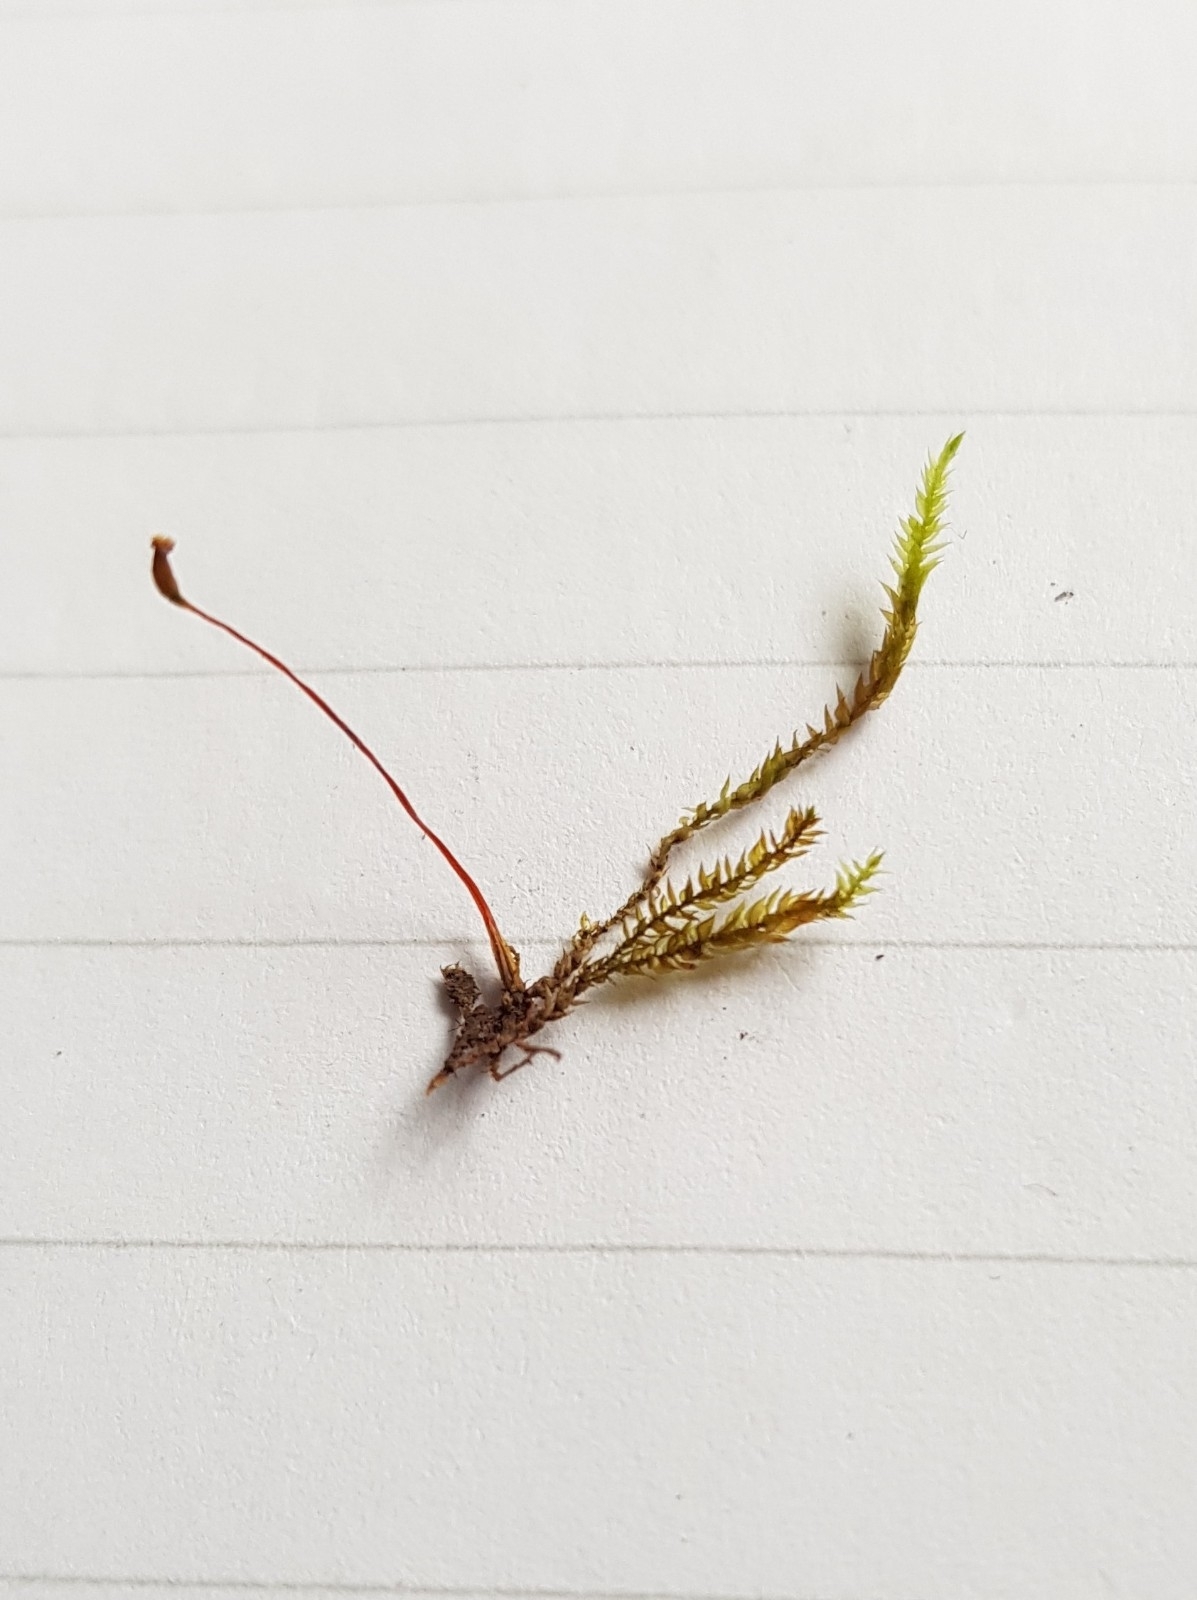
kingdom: Plantae
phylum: Bryophyta
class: Bryopsida
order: Hypnales
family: Brachytheciaceae
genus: Rhynchostegium
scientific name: Rhynchostegium confertum
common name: Clustered feather-moss
